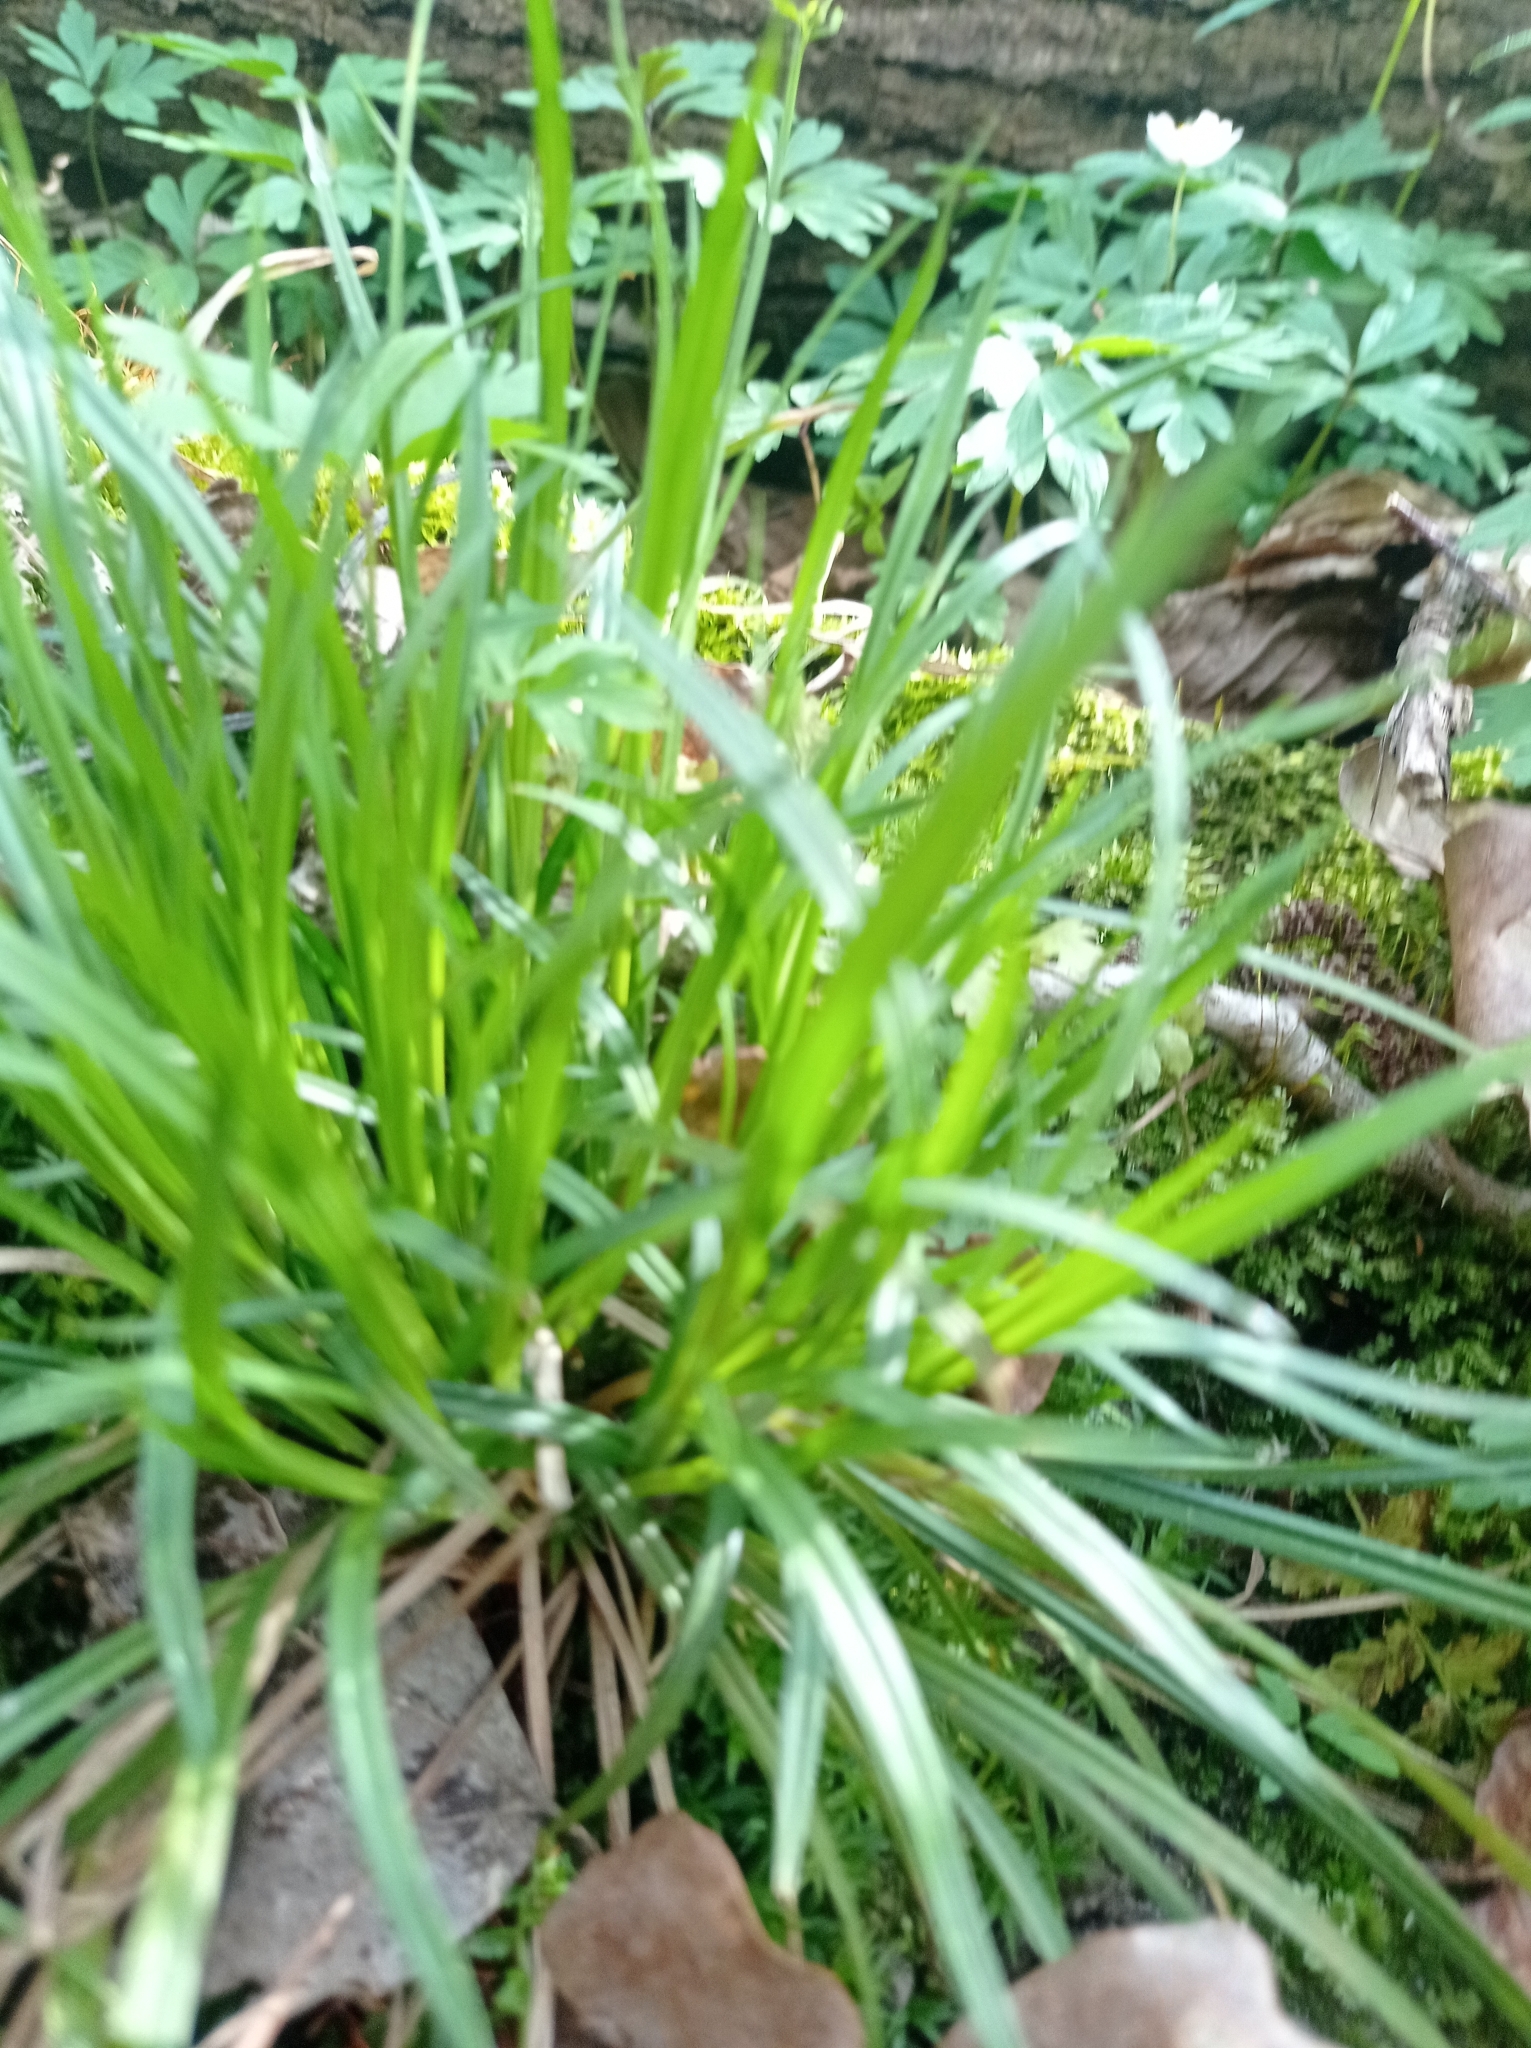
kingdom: Plantae
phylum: Tracheophyta
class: Liliopsida
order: Poales
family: Cyperaceae
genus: Carex
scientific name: Carex sylvatica
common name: Wood-sedge
